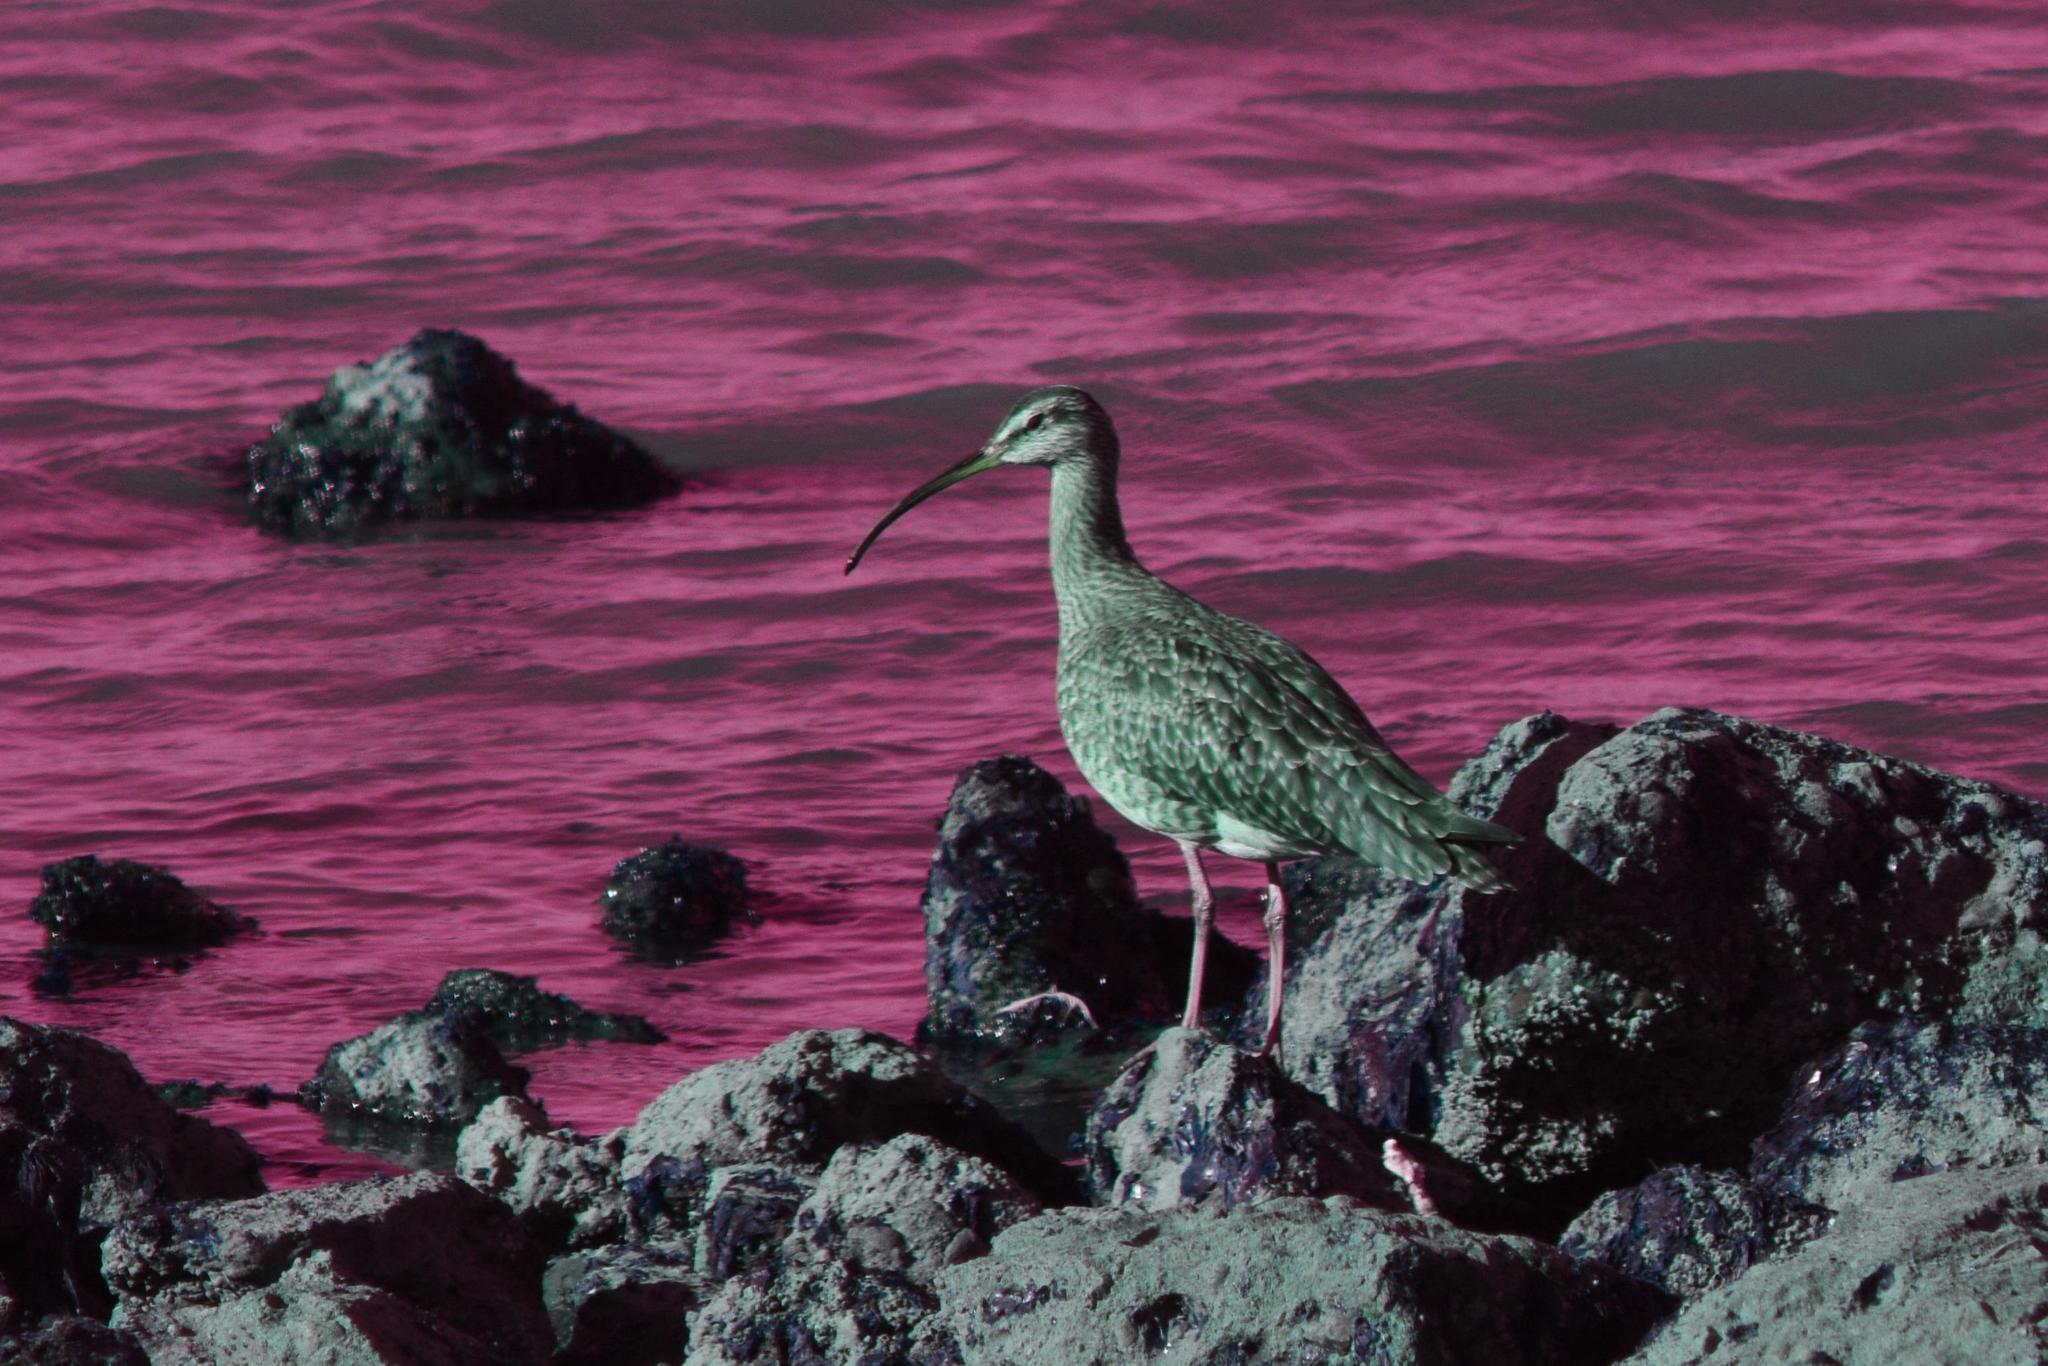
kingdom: Animalia
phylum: Chordata
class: Aves
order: Charadriiformes
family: Scolopacidae
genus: Numenius
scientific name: Numenius phaeopus
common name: Whimbrel
